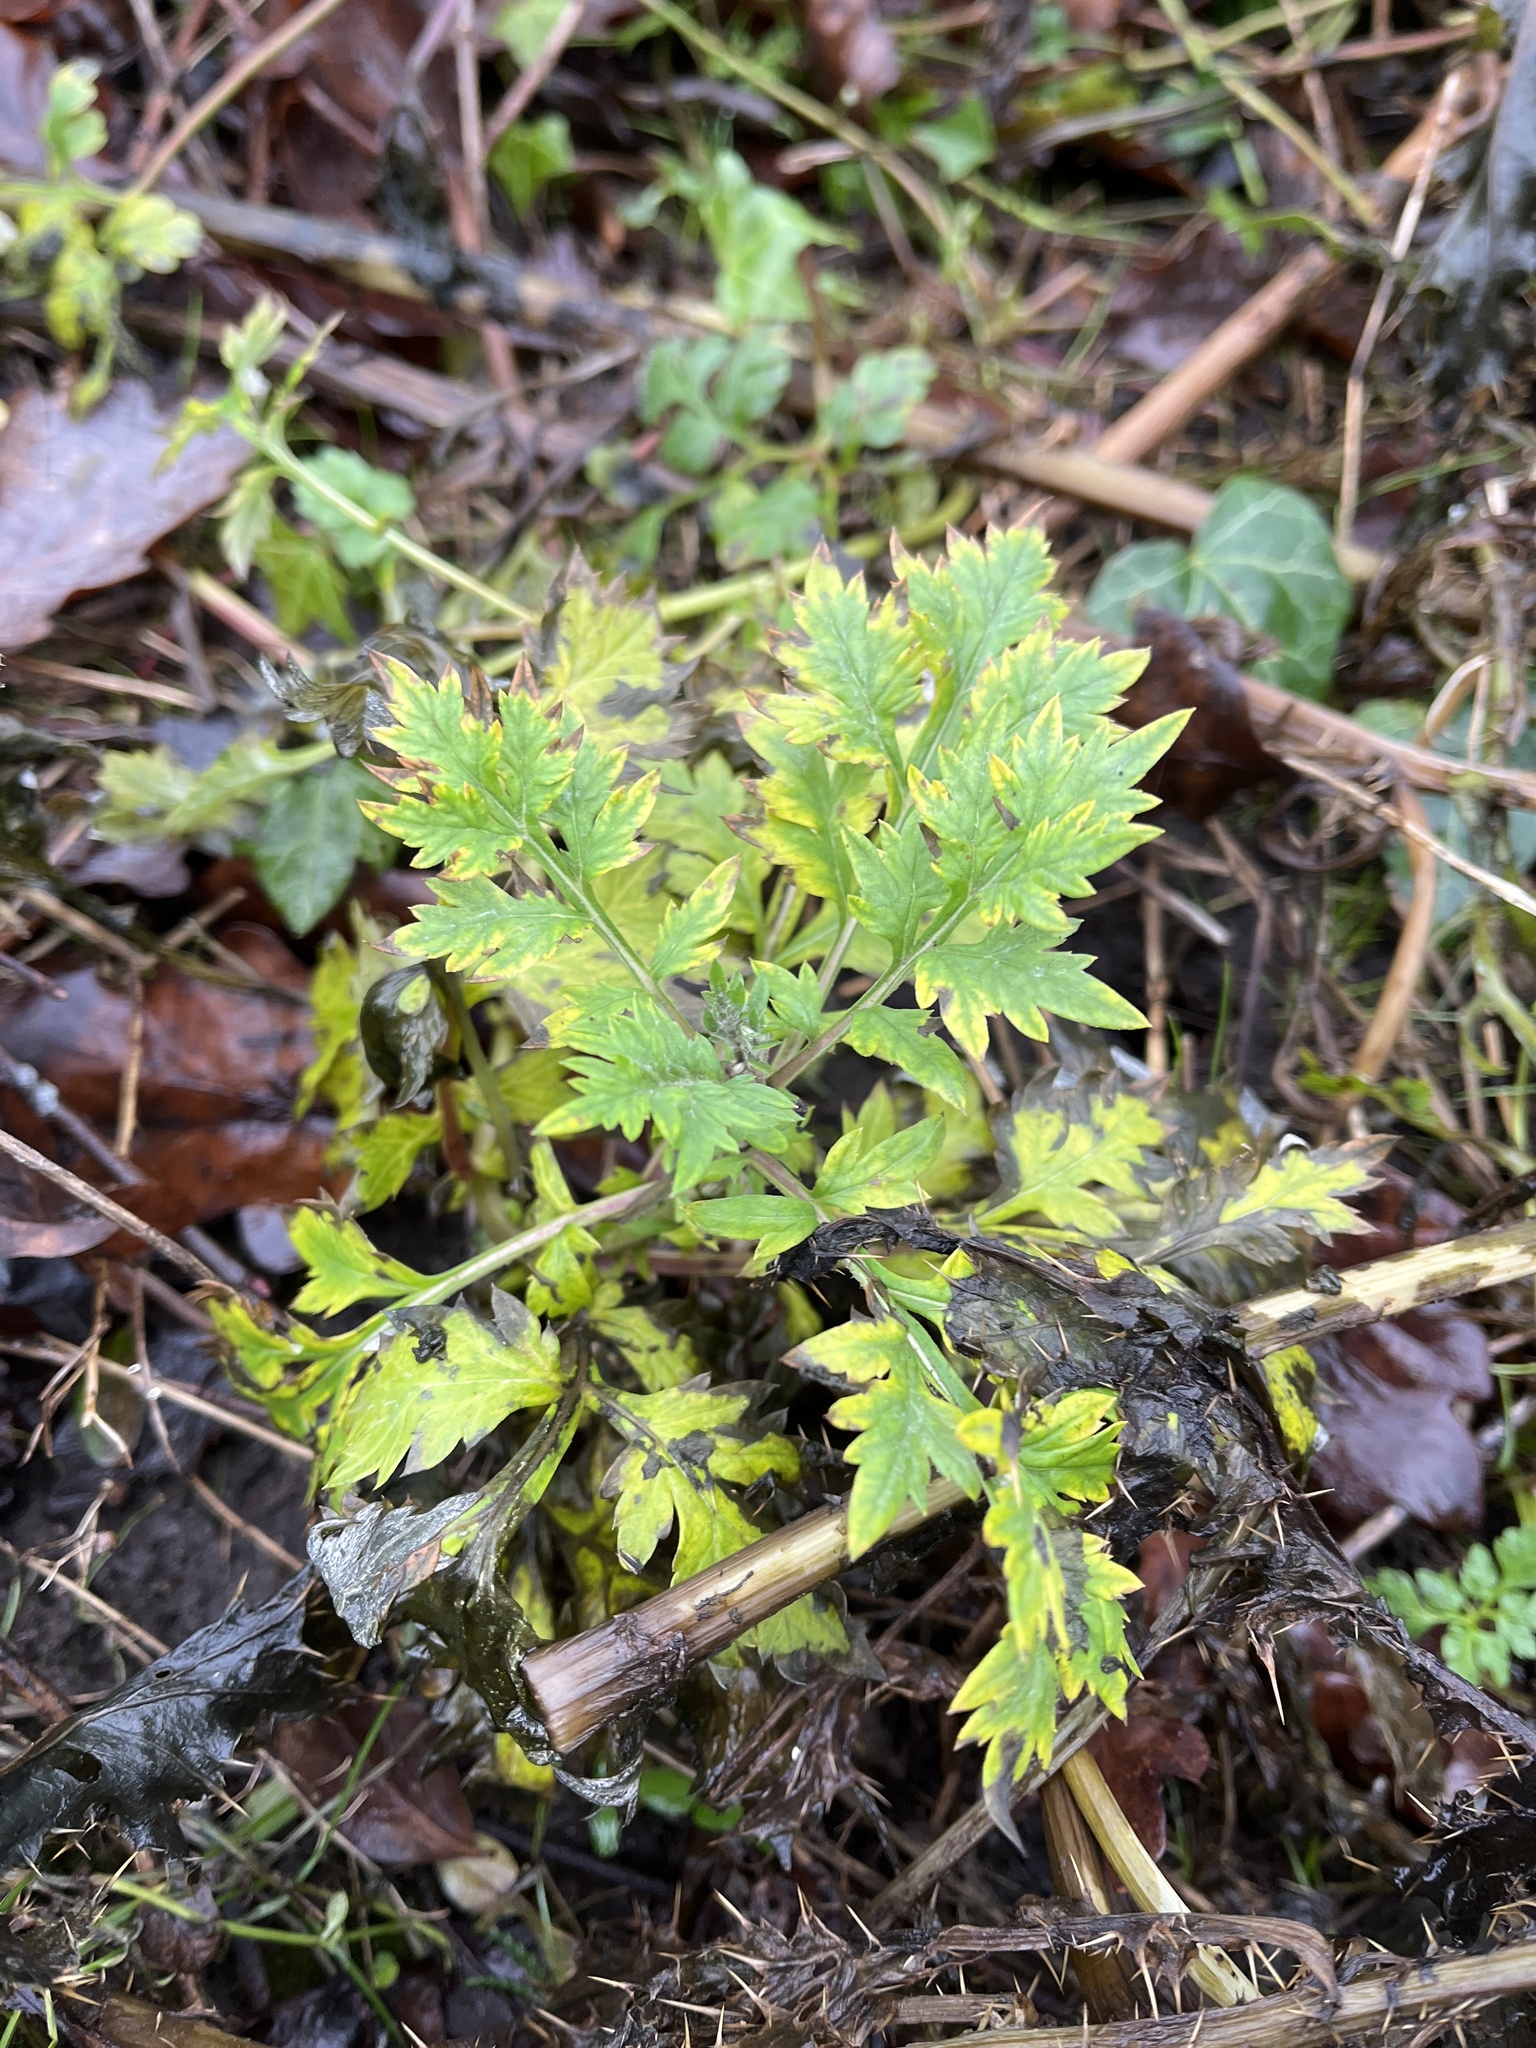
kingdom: Plantae
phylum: Tracheophyta
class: Magnoliopsida
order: Asterales
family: Asteraceae
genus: Artemisia
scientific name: Artemisia vulgaris
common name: Mugwort
